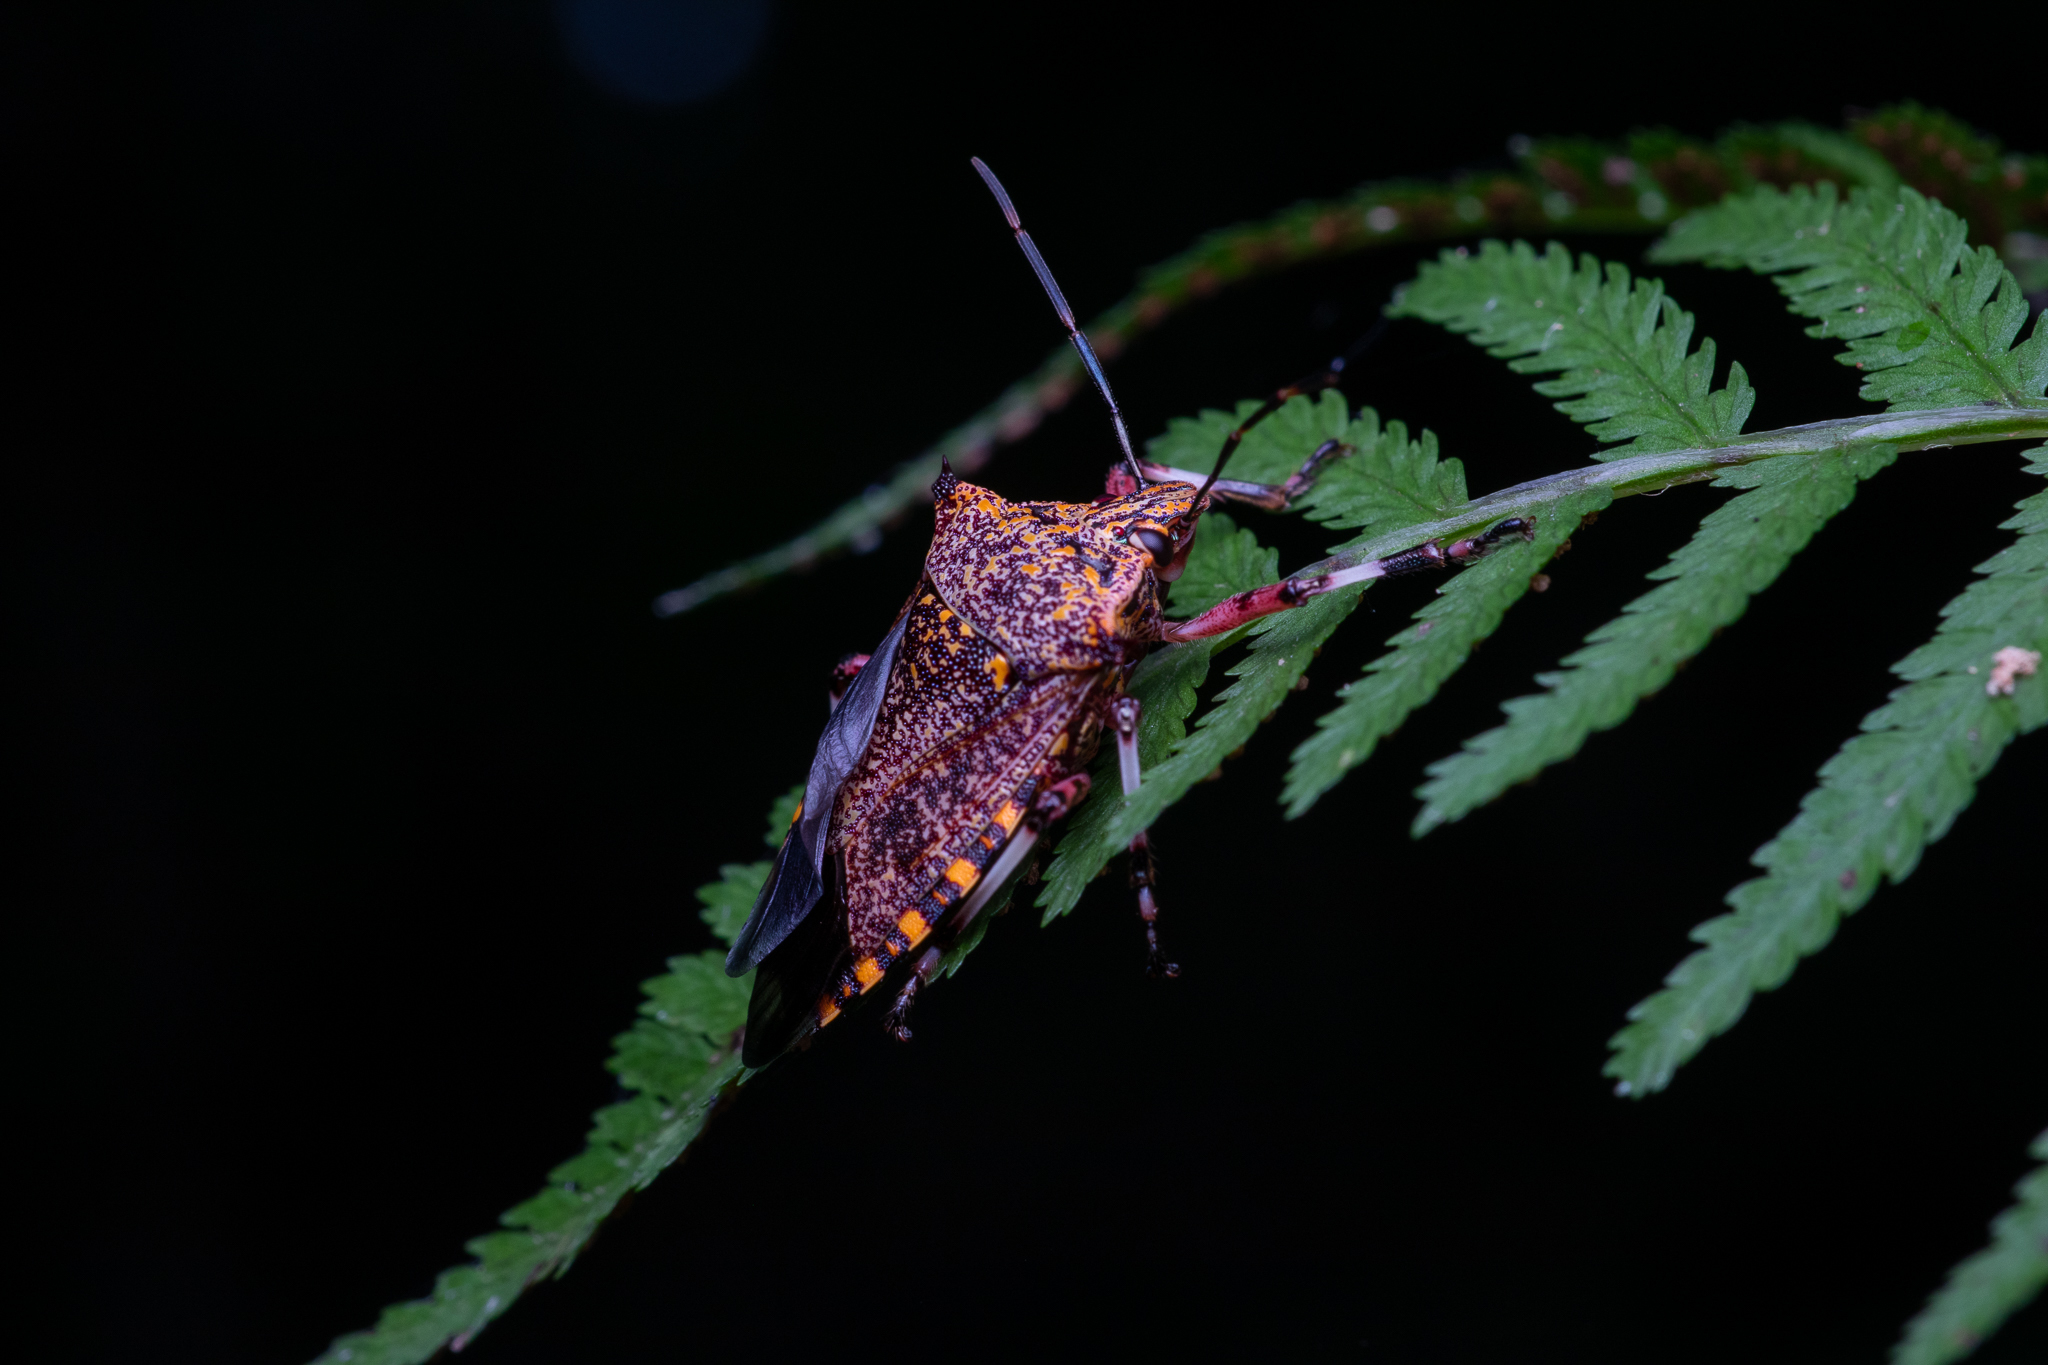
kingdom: Animalia
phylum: Arthropoda
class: Insecta
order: Hemiptera
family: Pentatomidae
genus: Alcaeorrhynchus
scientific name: Alcaeorrhynchus grandis
